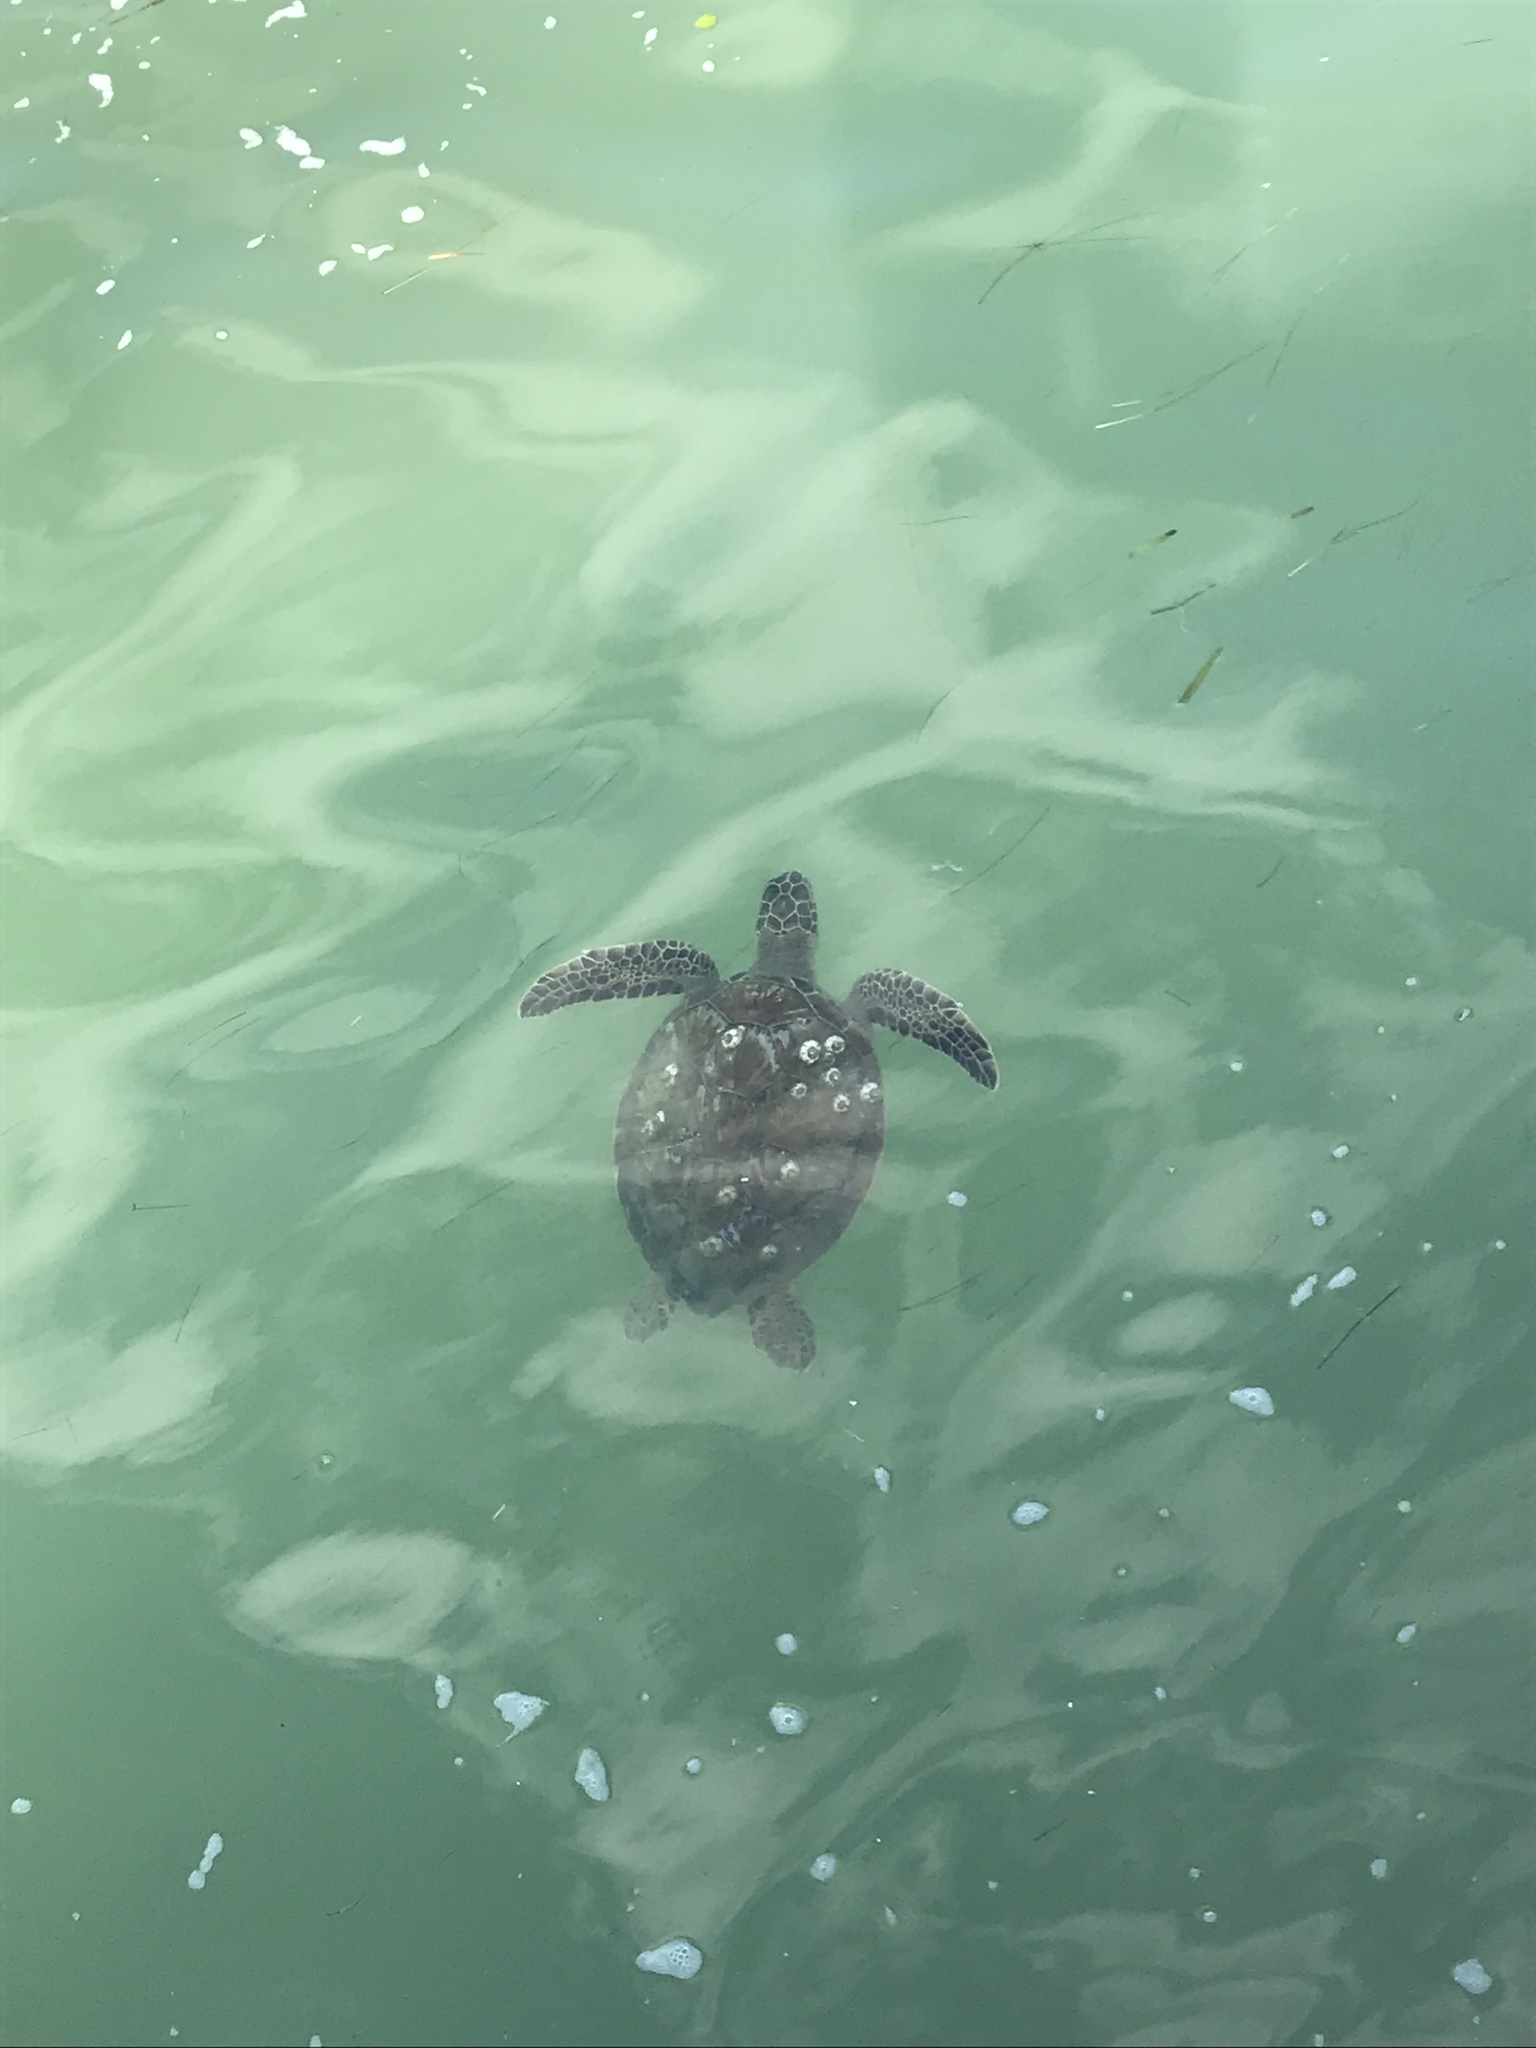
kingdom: Animalia
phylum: Chordata
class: Testudines
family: Cheloniidae
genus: Chelonia
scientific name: Chelonia mydas
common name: Green turtle
